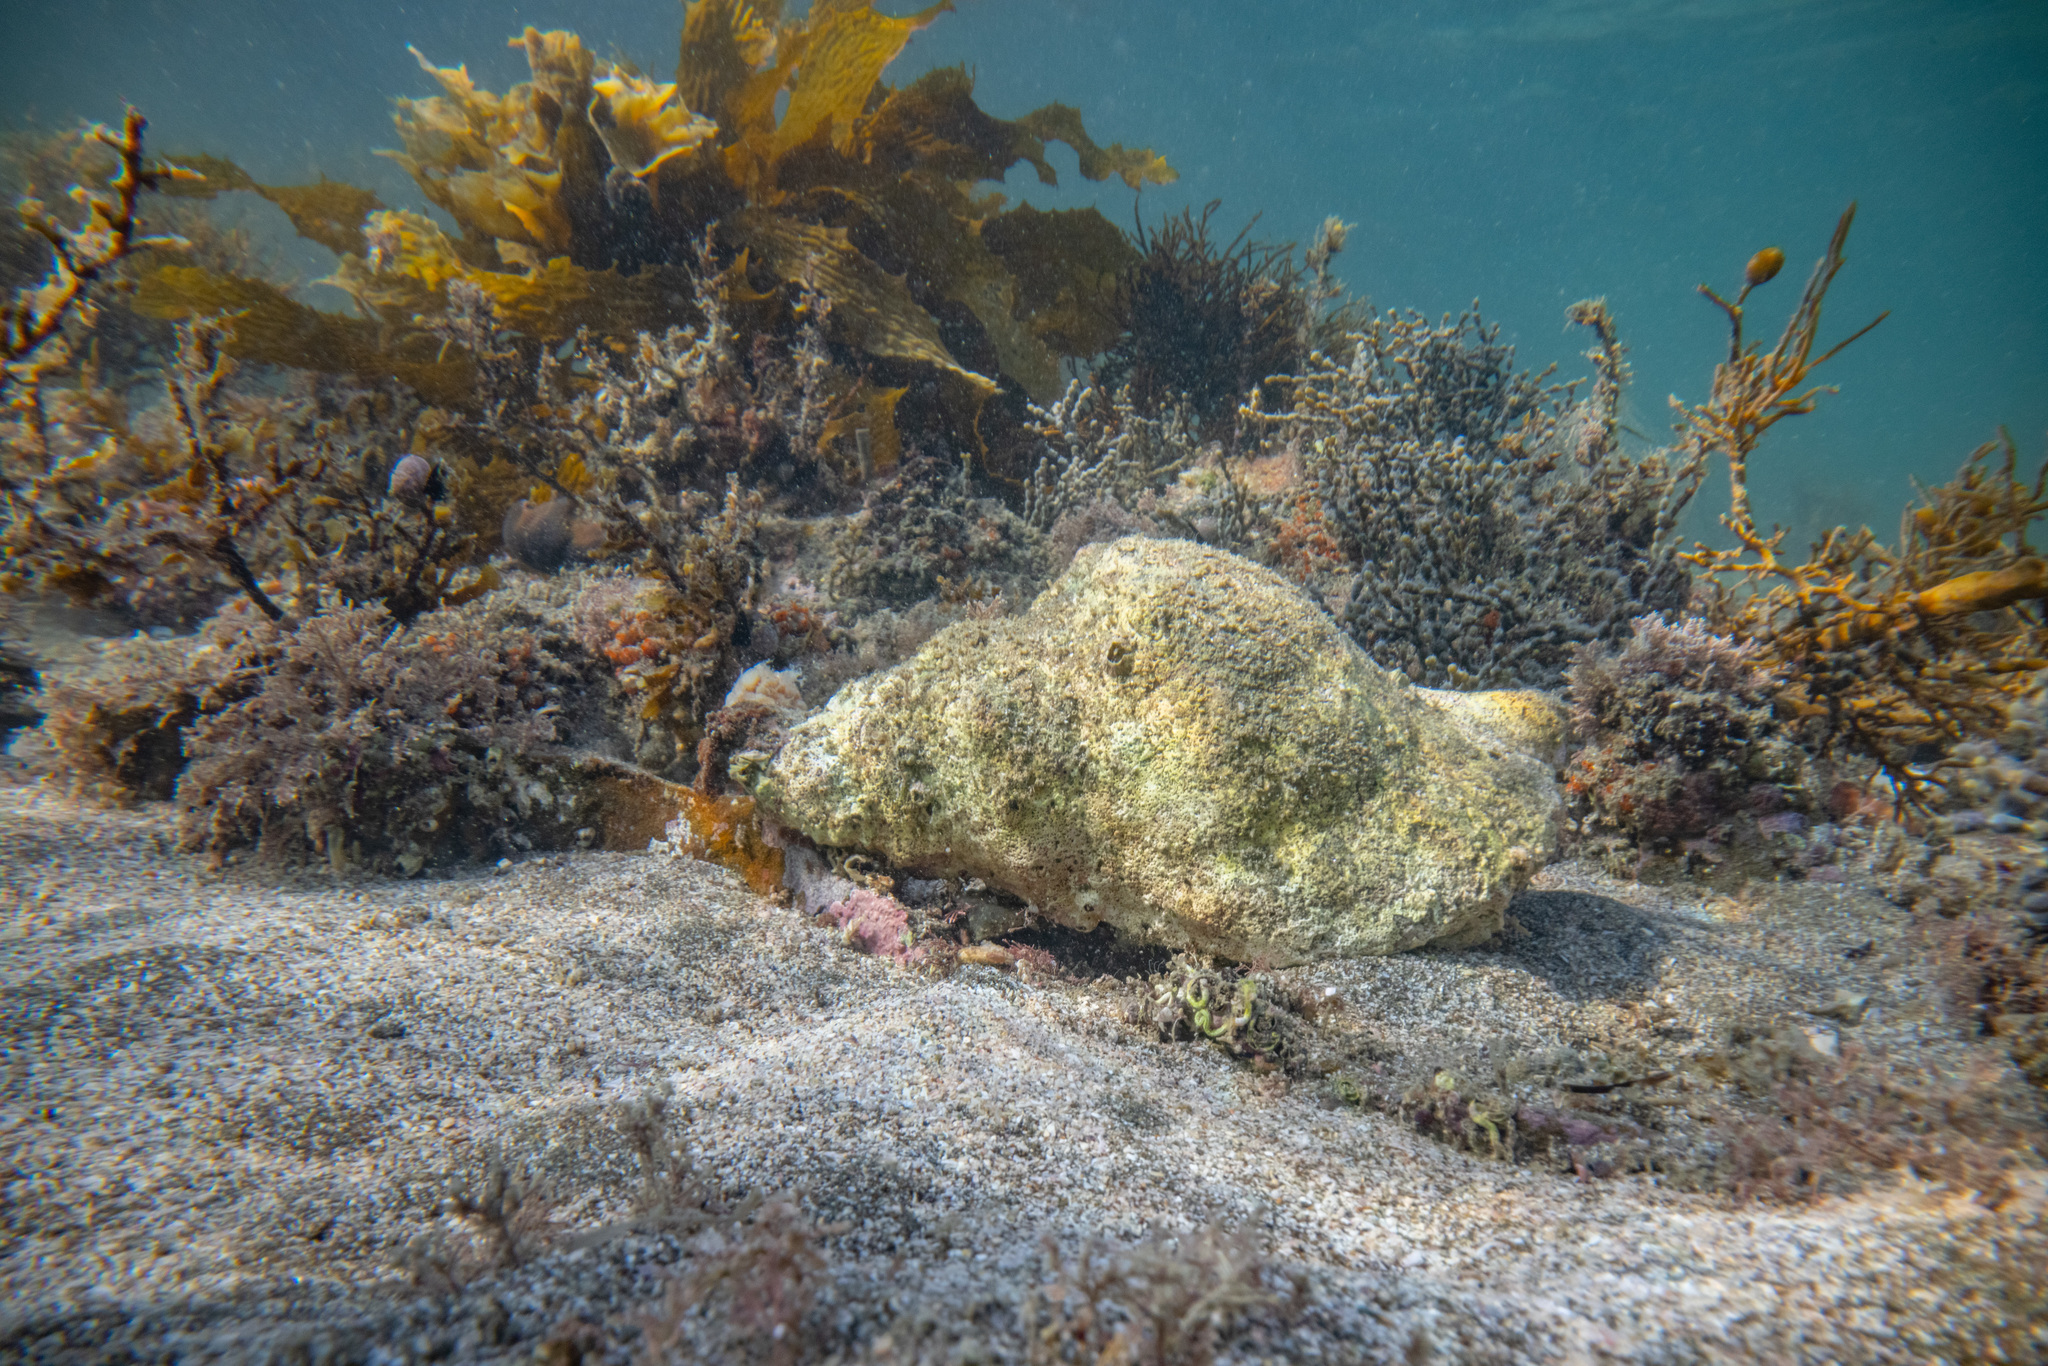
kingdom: Animalia
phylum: Mollusca
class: Gastropoda
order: Littorinimorpha
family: Charoniidae
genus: Charonia
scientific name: Charonia lampas
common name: Knobbed triton
